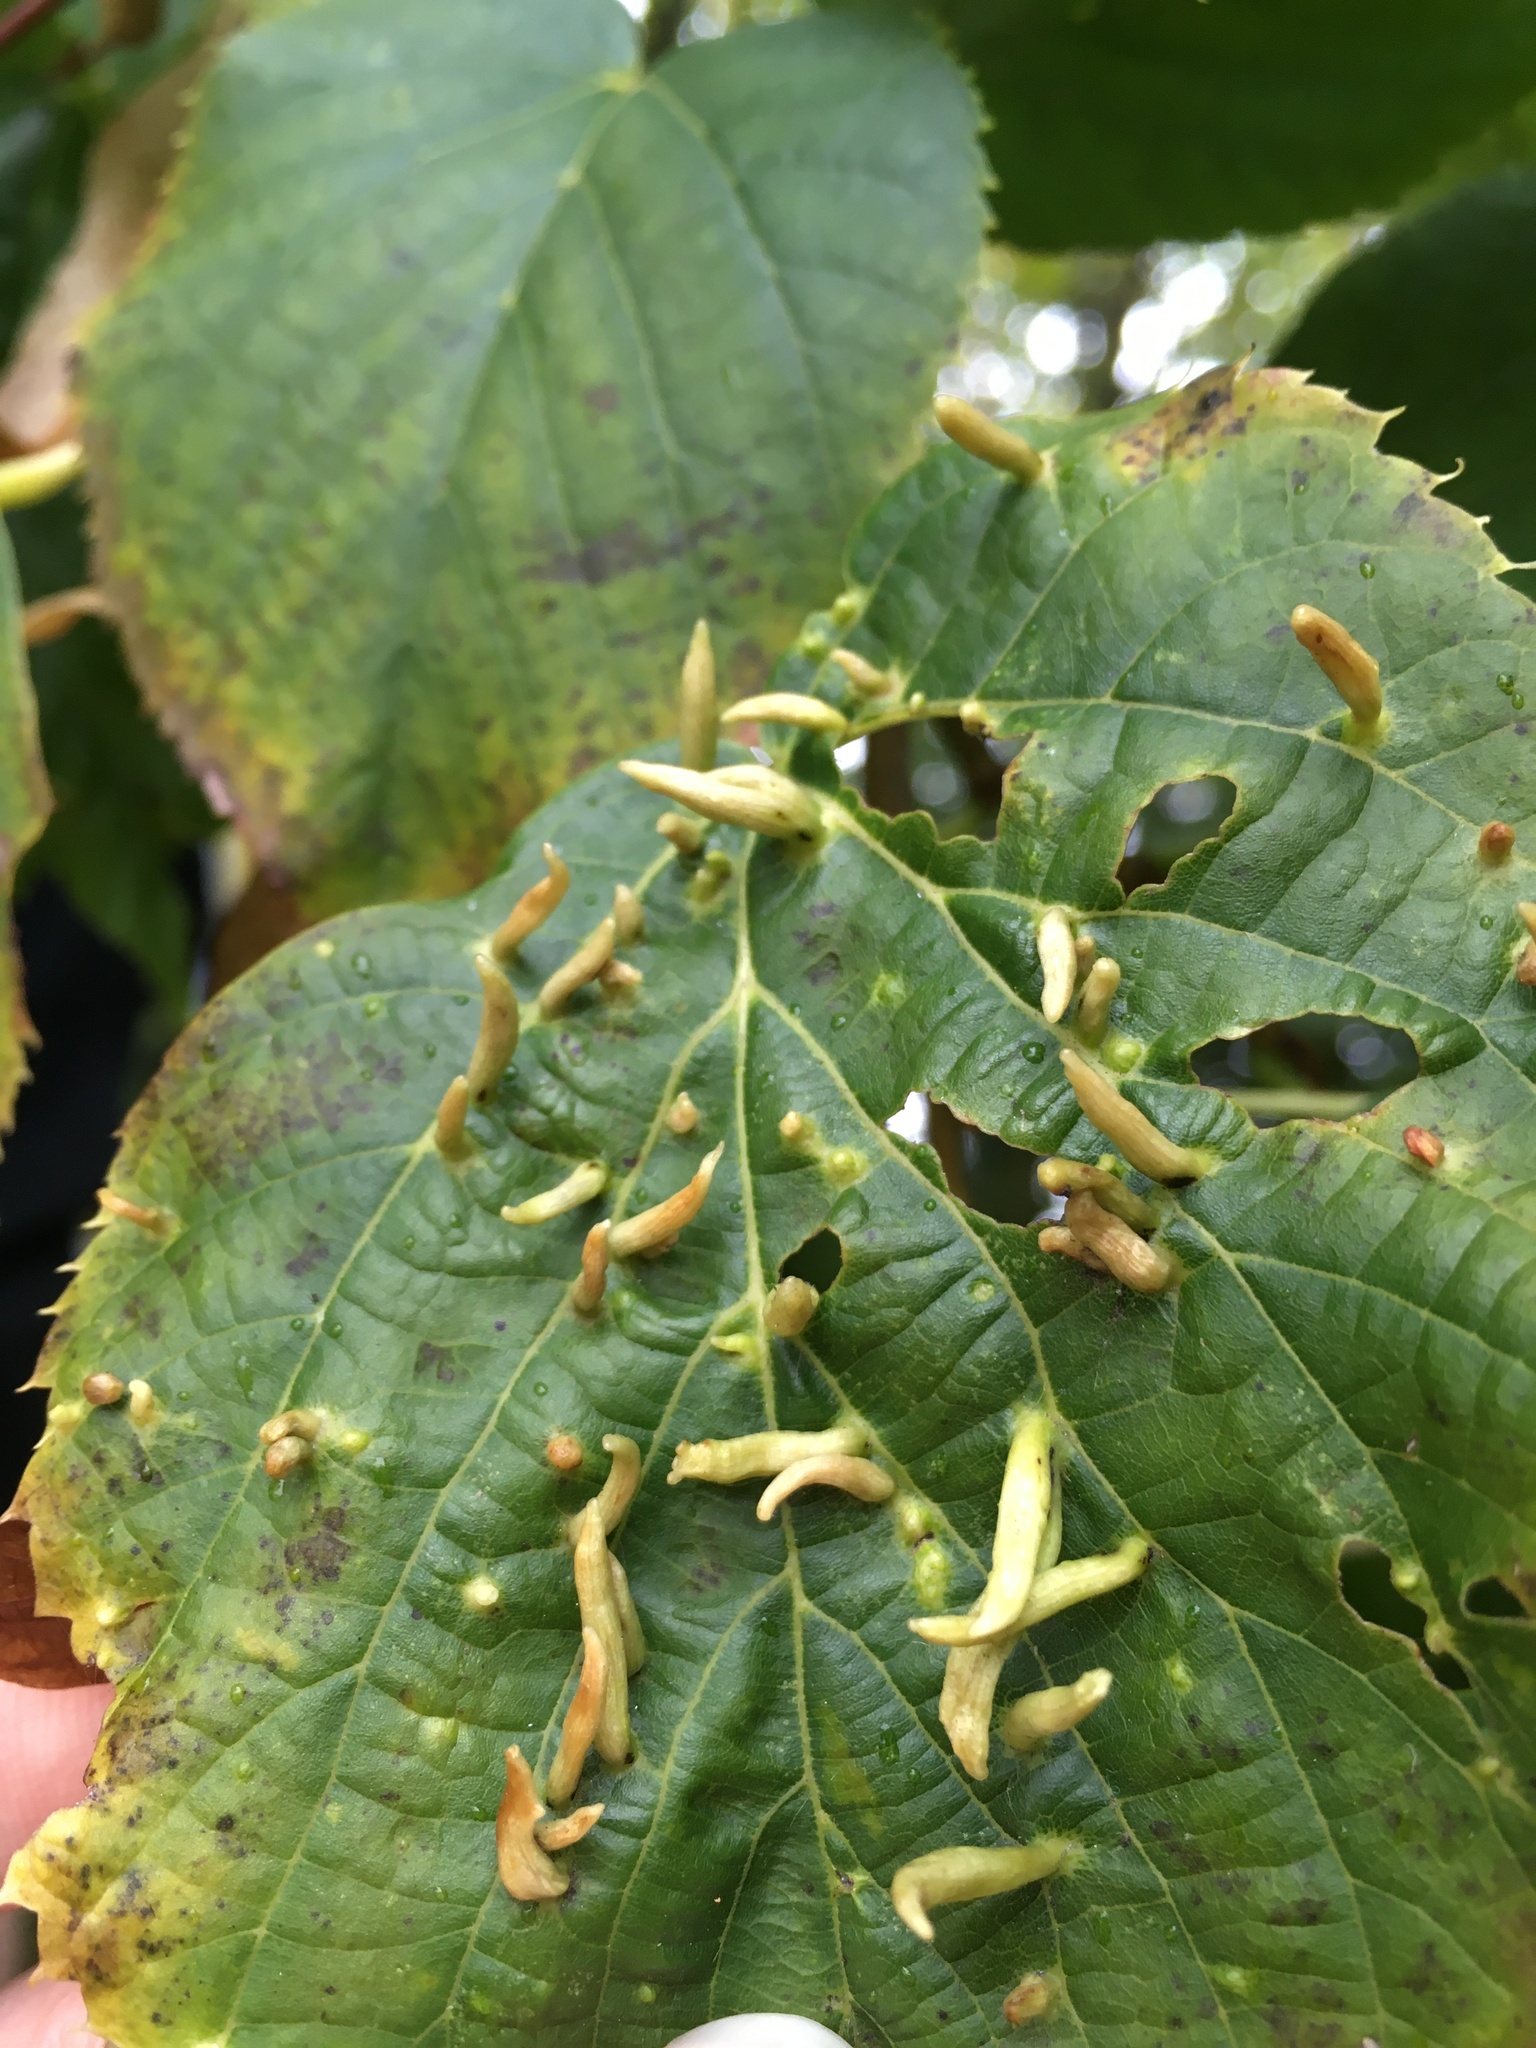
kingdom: Animalia
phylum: Arthropoda
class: Arachnida
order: Trombidiformes
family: Eriophyidae
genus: Eriophyes
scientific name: Eriophyes tiliae
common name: Red nail gall mite
